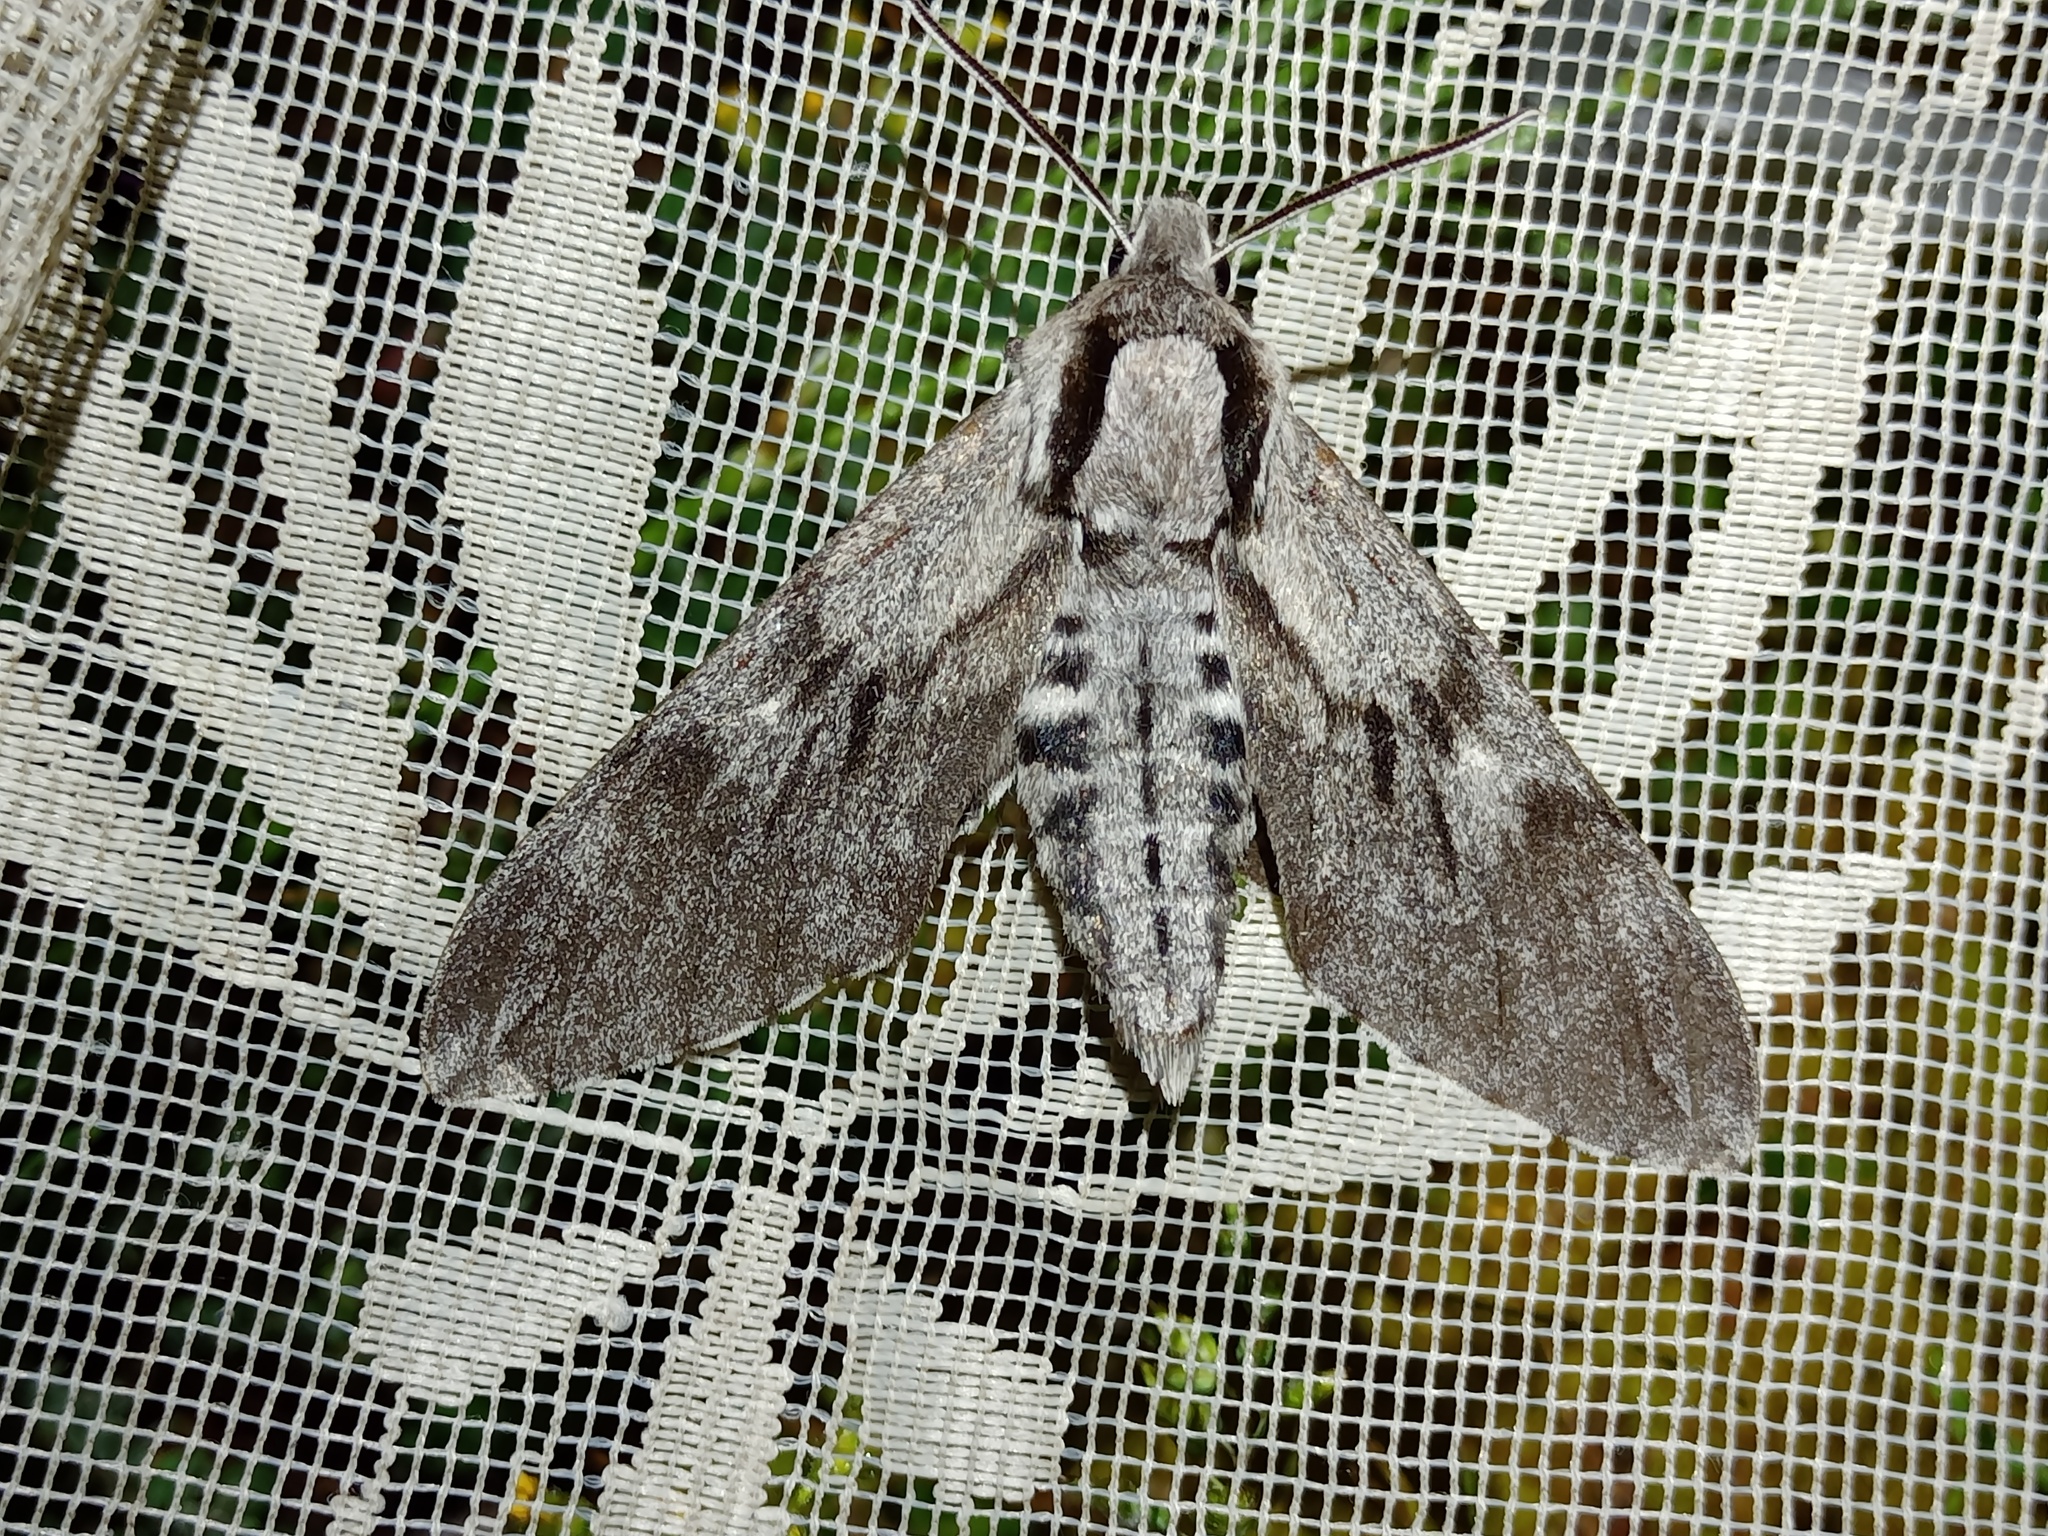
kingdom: Animalia
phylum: Arthropoda
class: Insecta
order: Lepidoptera
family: Sphingidae
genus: Sphinx
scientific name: Sphinx pinastri
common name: Pine hawk-moth
